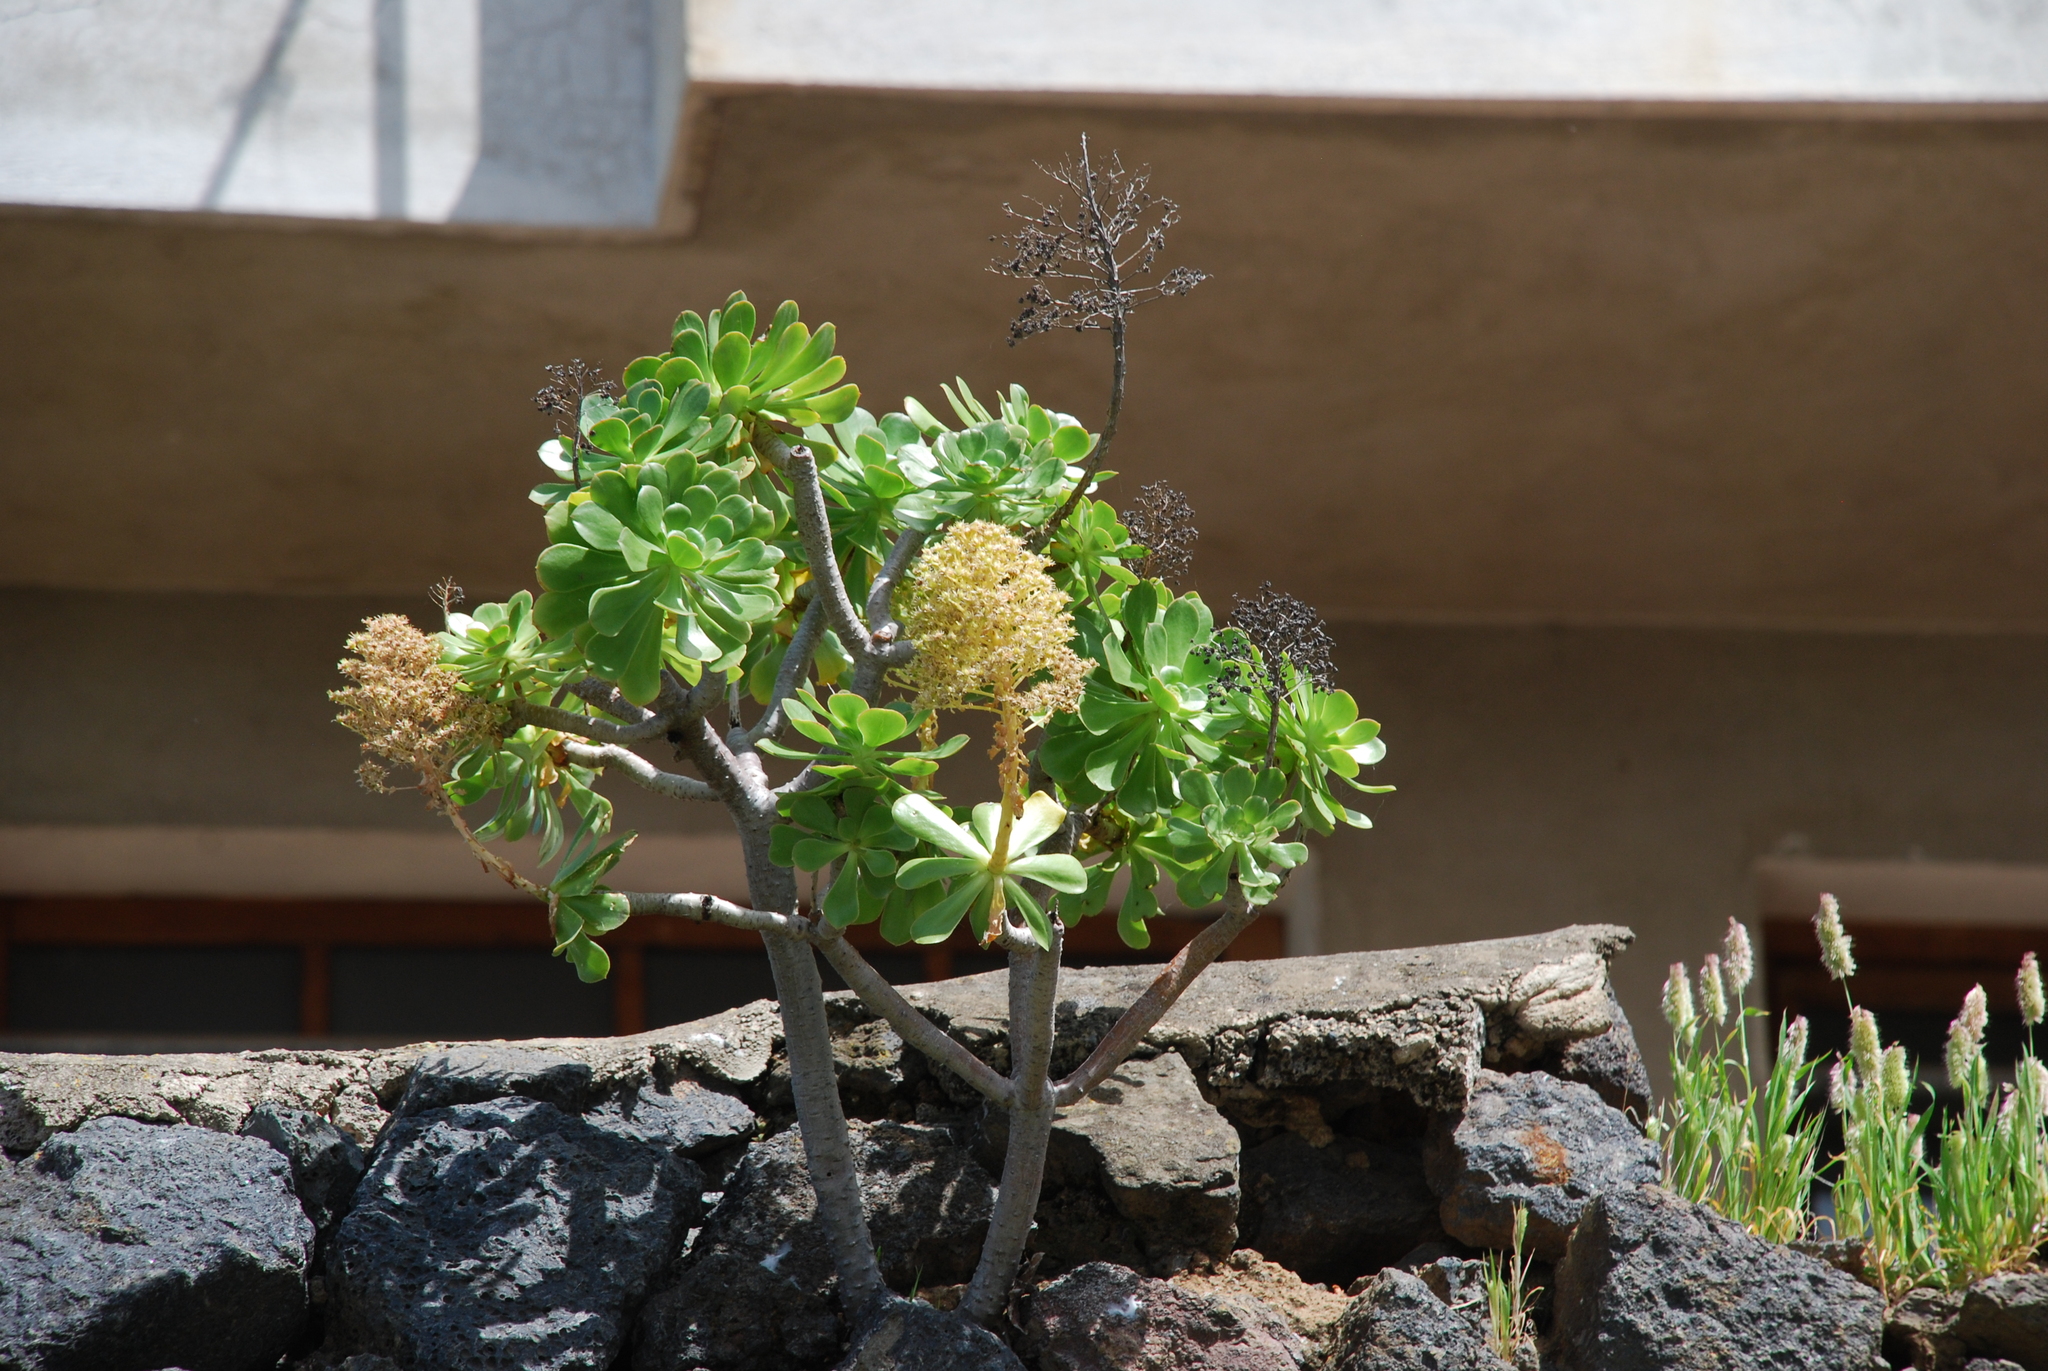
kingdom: Plantae
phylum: Tracheophyta
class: Magnoliopsida
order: Saxifragales
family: Crassulaceae
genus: Aeonium
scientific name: Aeonium arboreum
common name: Tree aeonium
